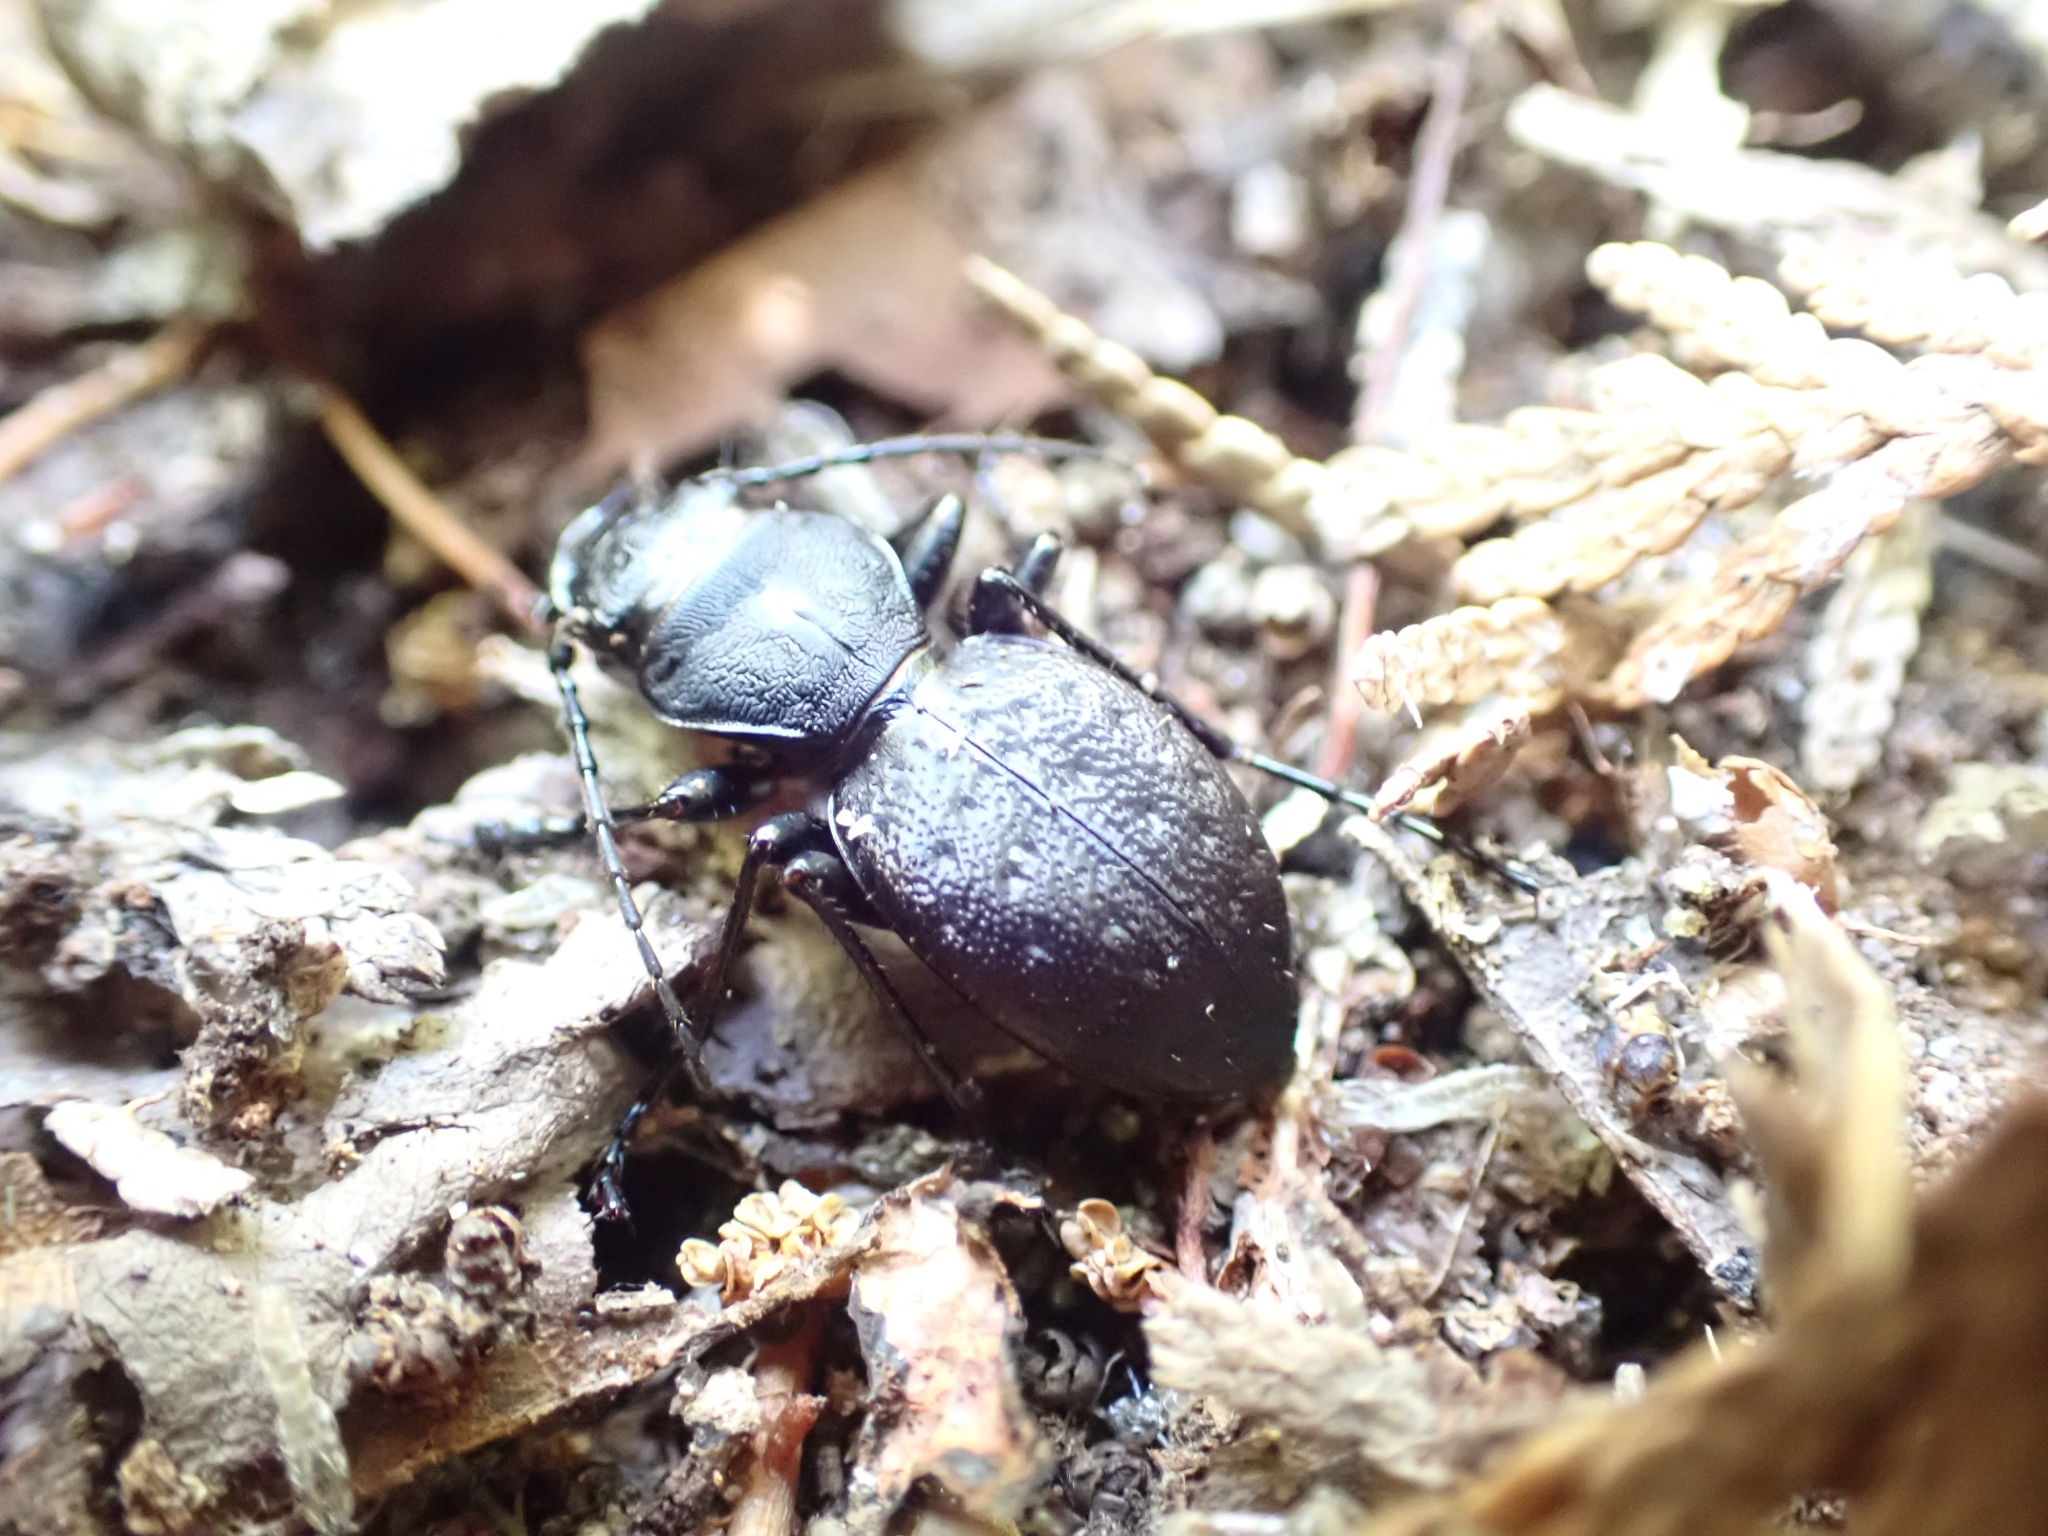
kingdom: Animalia
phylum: Arthropoda
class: Insecta
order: Coleoptera
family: Carabidae
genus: Omus
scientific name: Omus dejeanii
